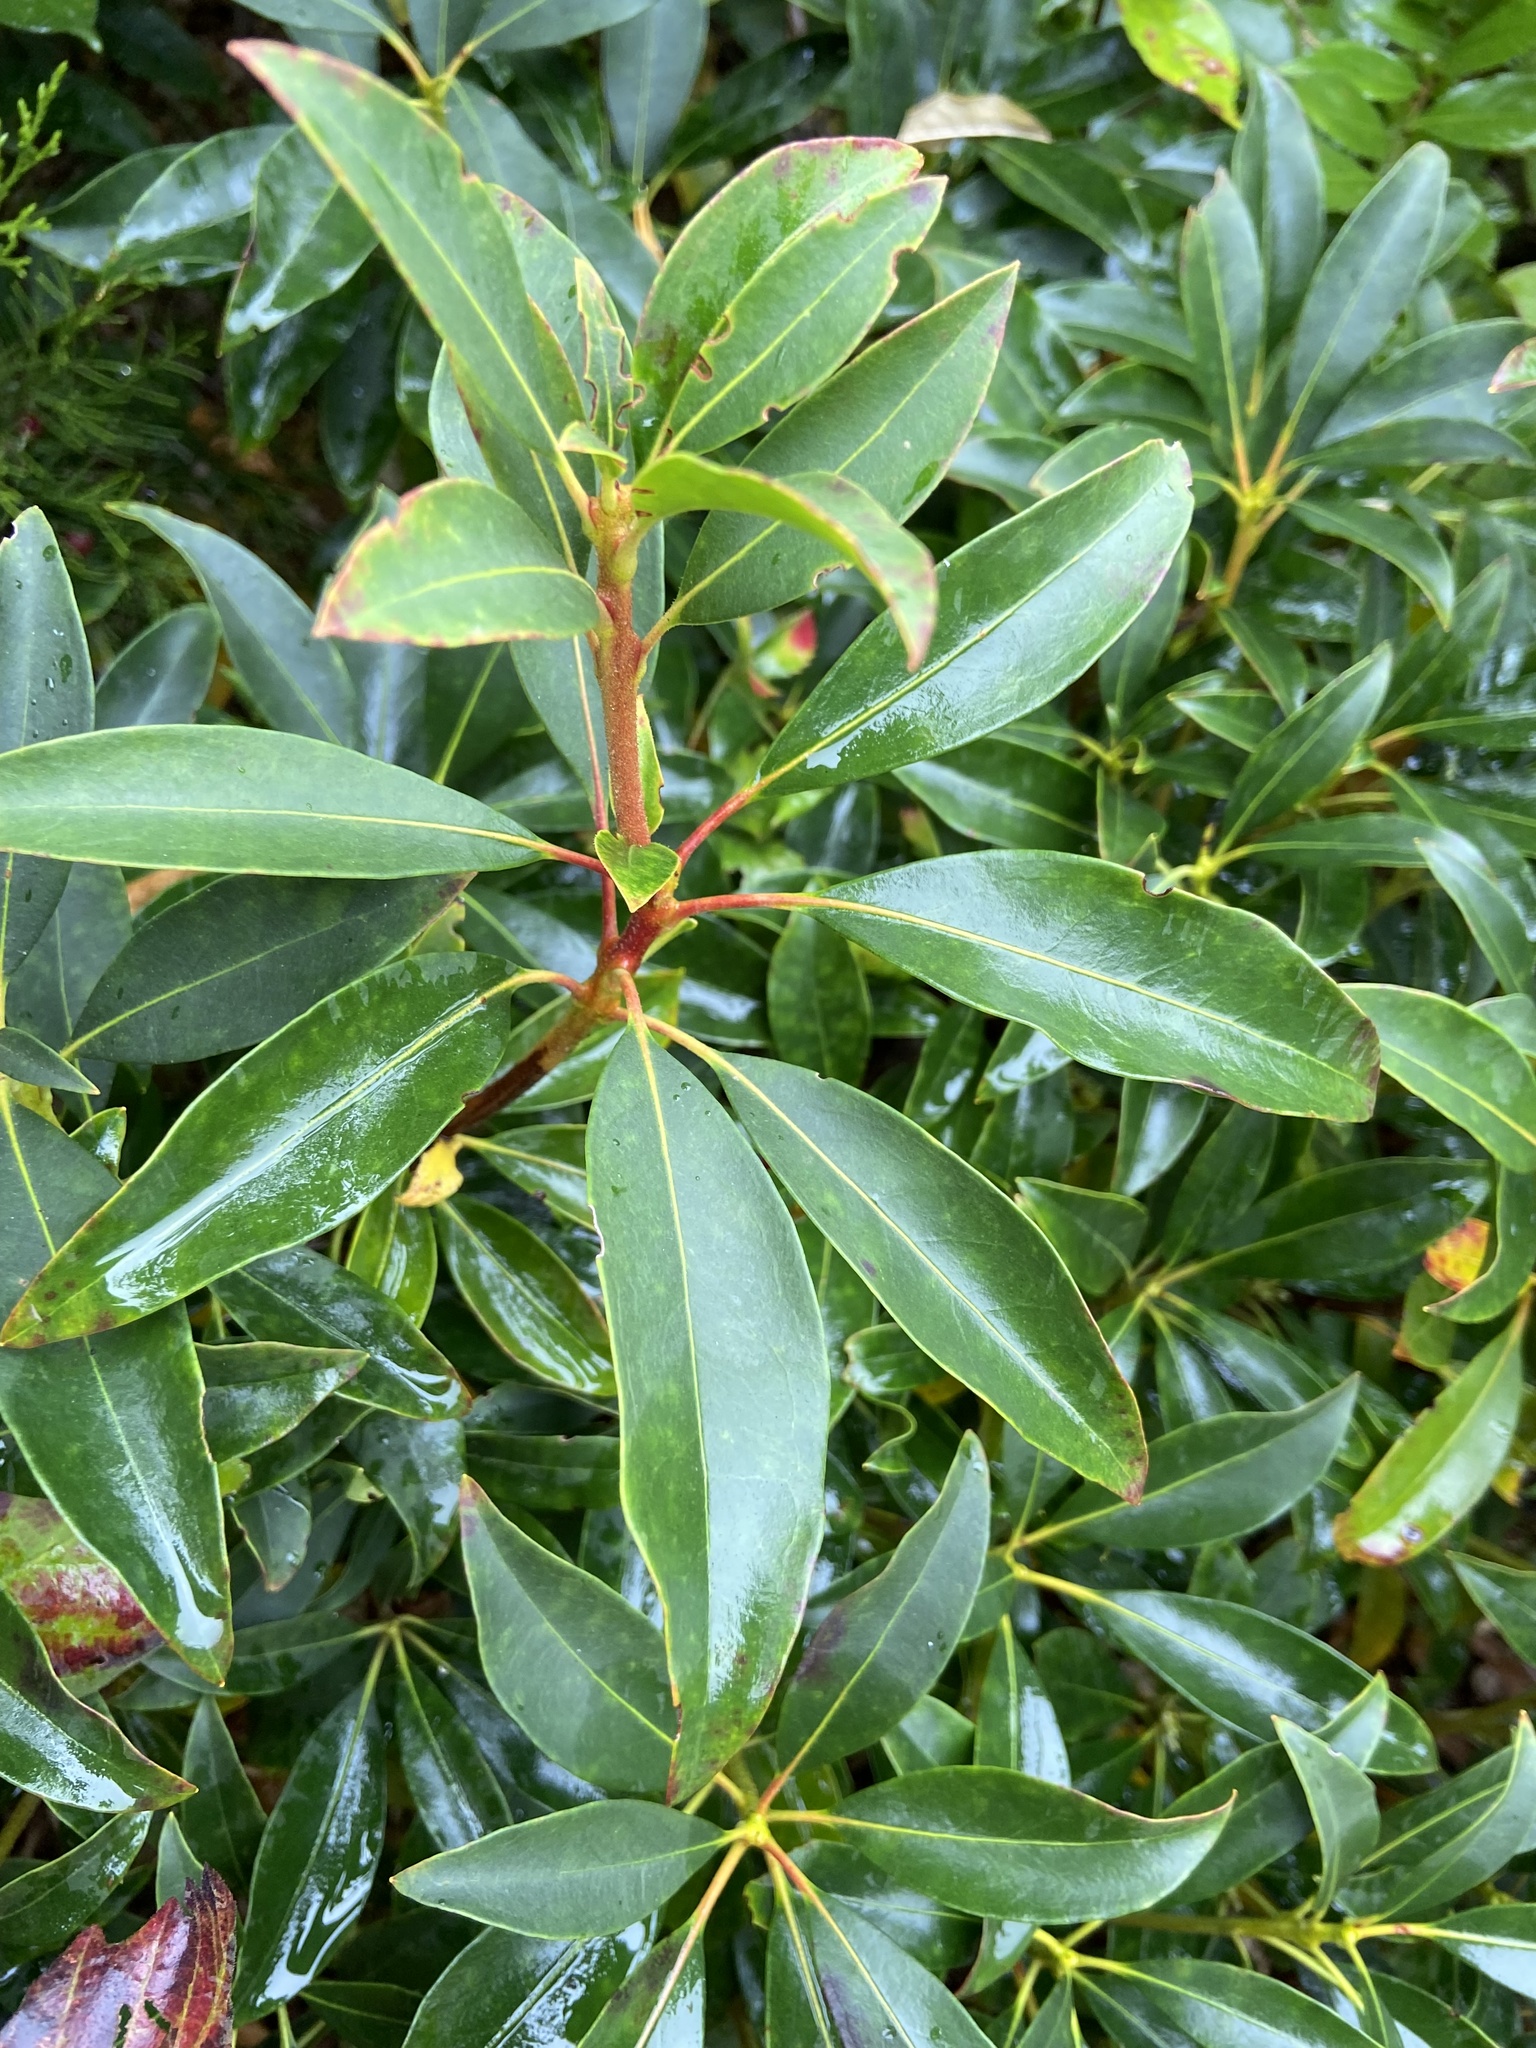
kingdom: Plantae
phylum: Tracheophyta
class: Magnoliopsida
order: Ericales
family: Ericaceae
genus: Kalmia
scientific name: Kalmia latifolia
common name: Mountain-laurel
